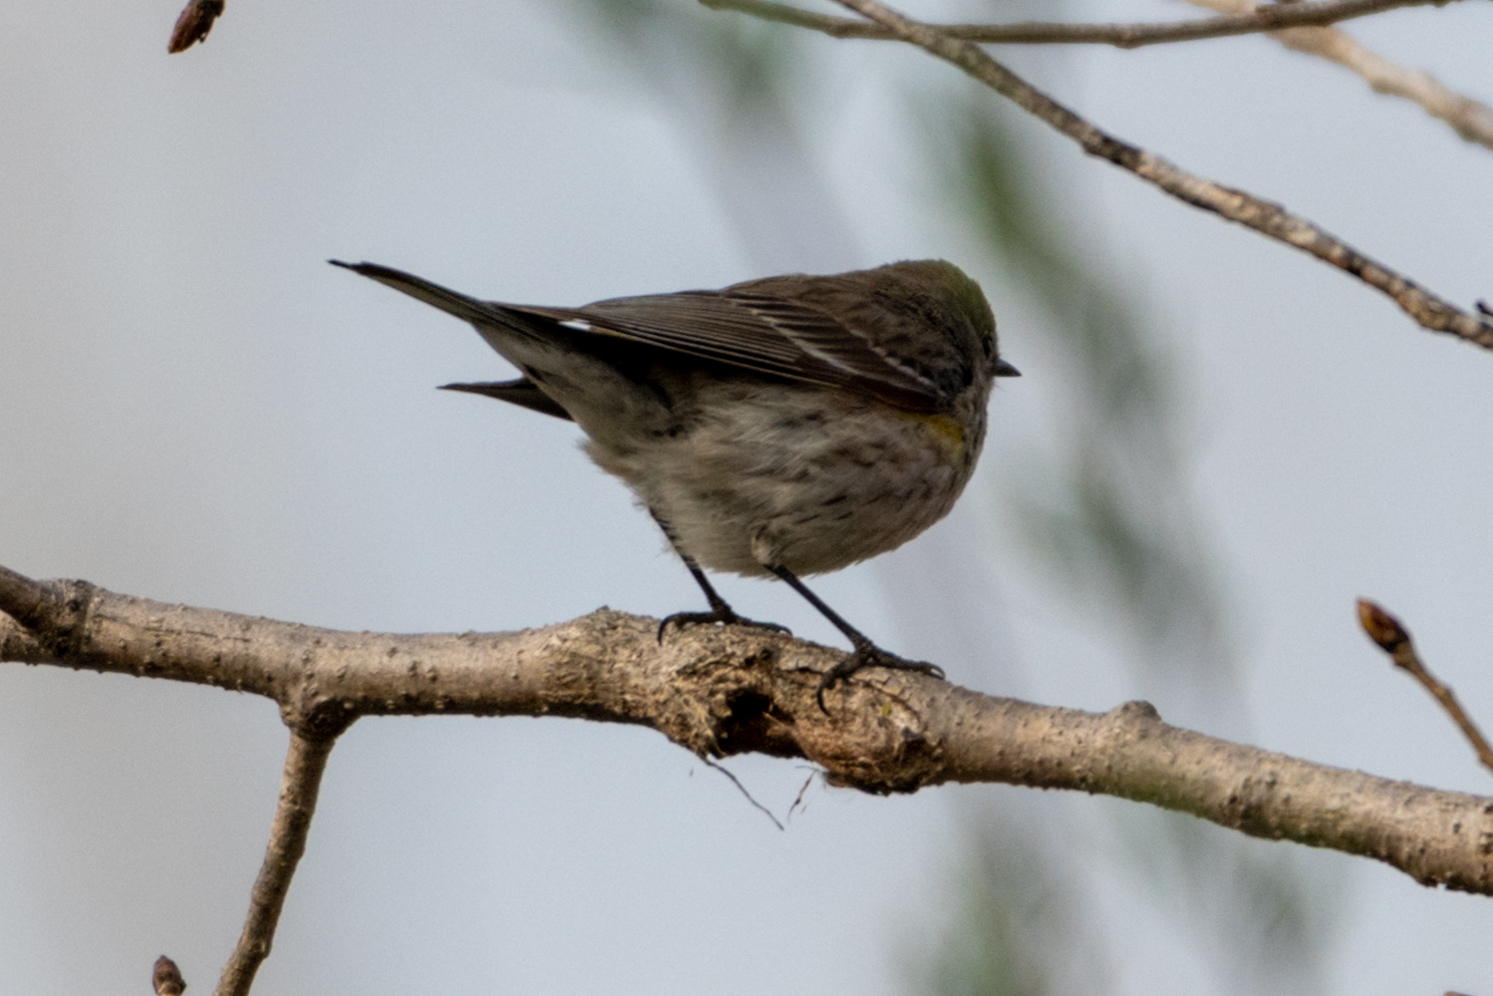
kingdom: Animalia
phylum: Chordata
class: Aves
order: Passeriformes
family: Parulidae
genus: Setophaga
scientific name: Setophaga coronata
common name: Myrtle warbler
